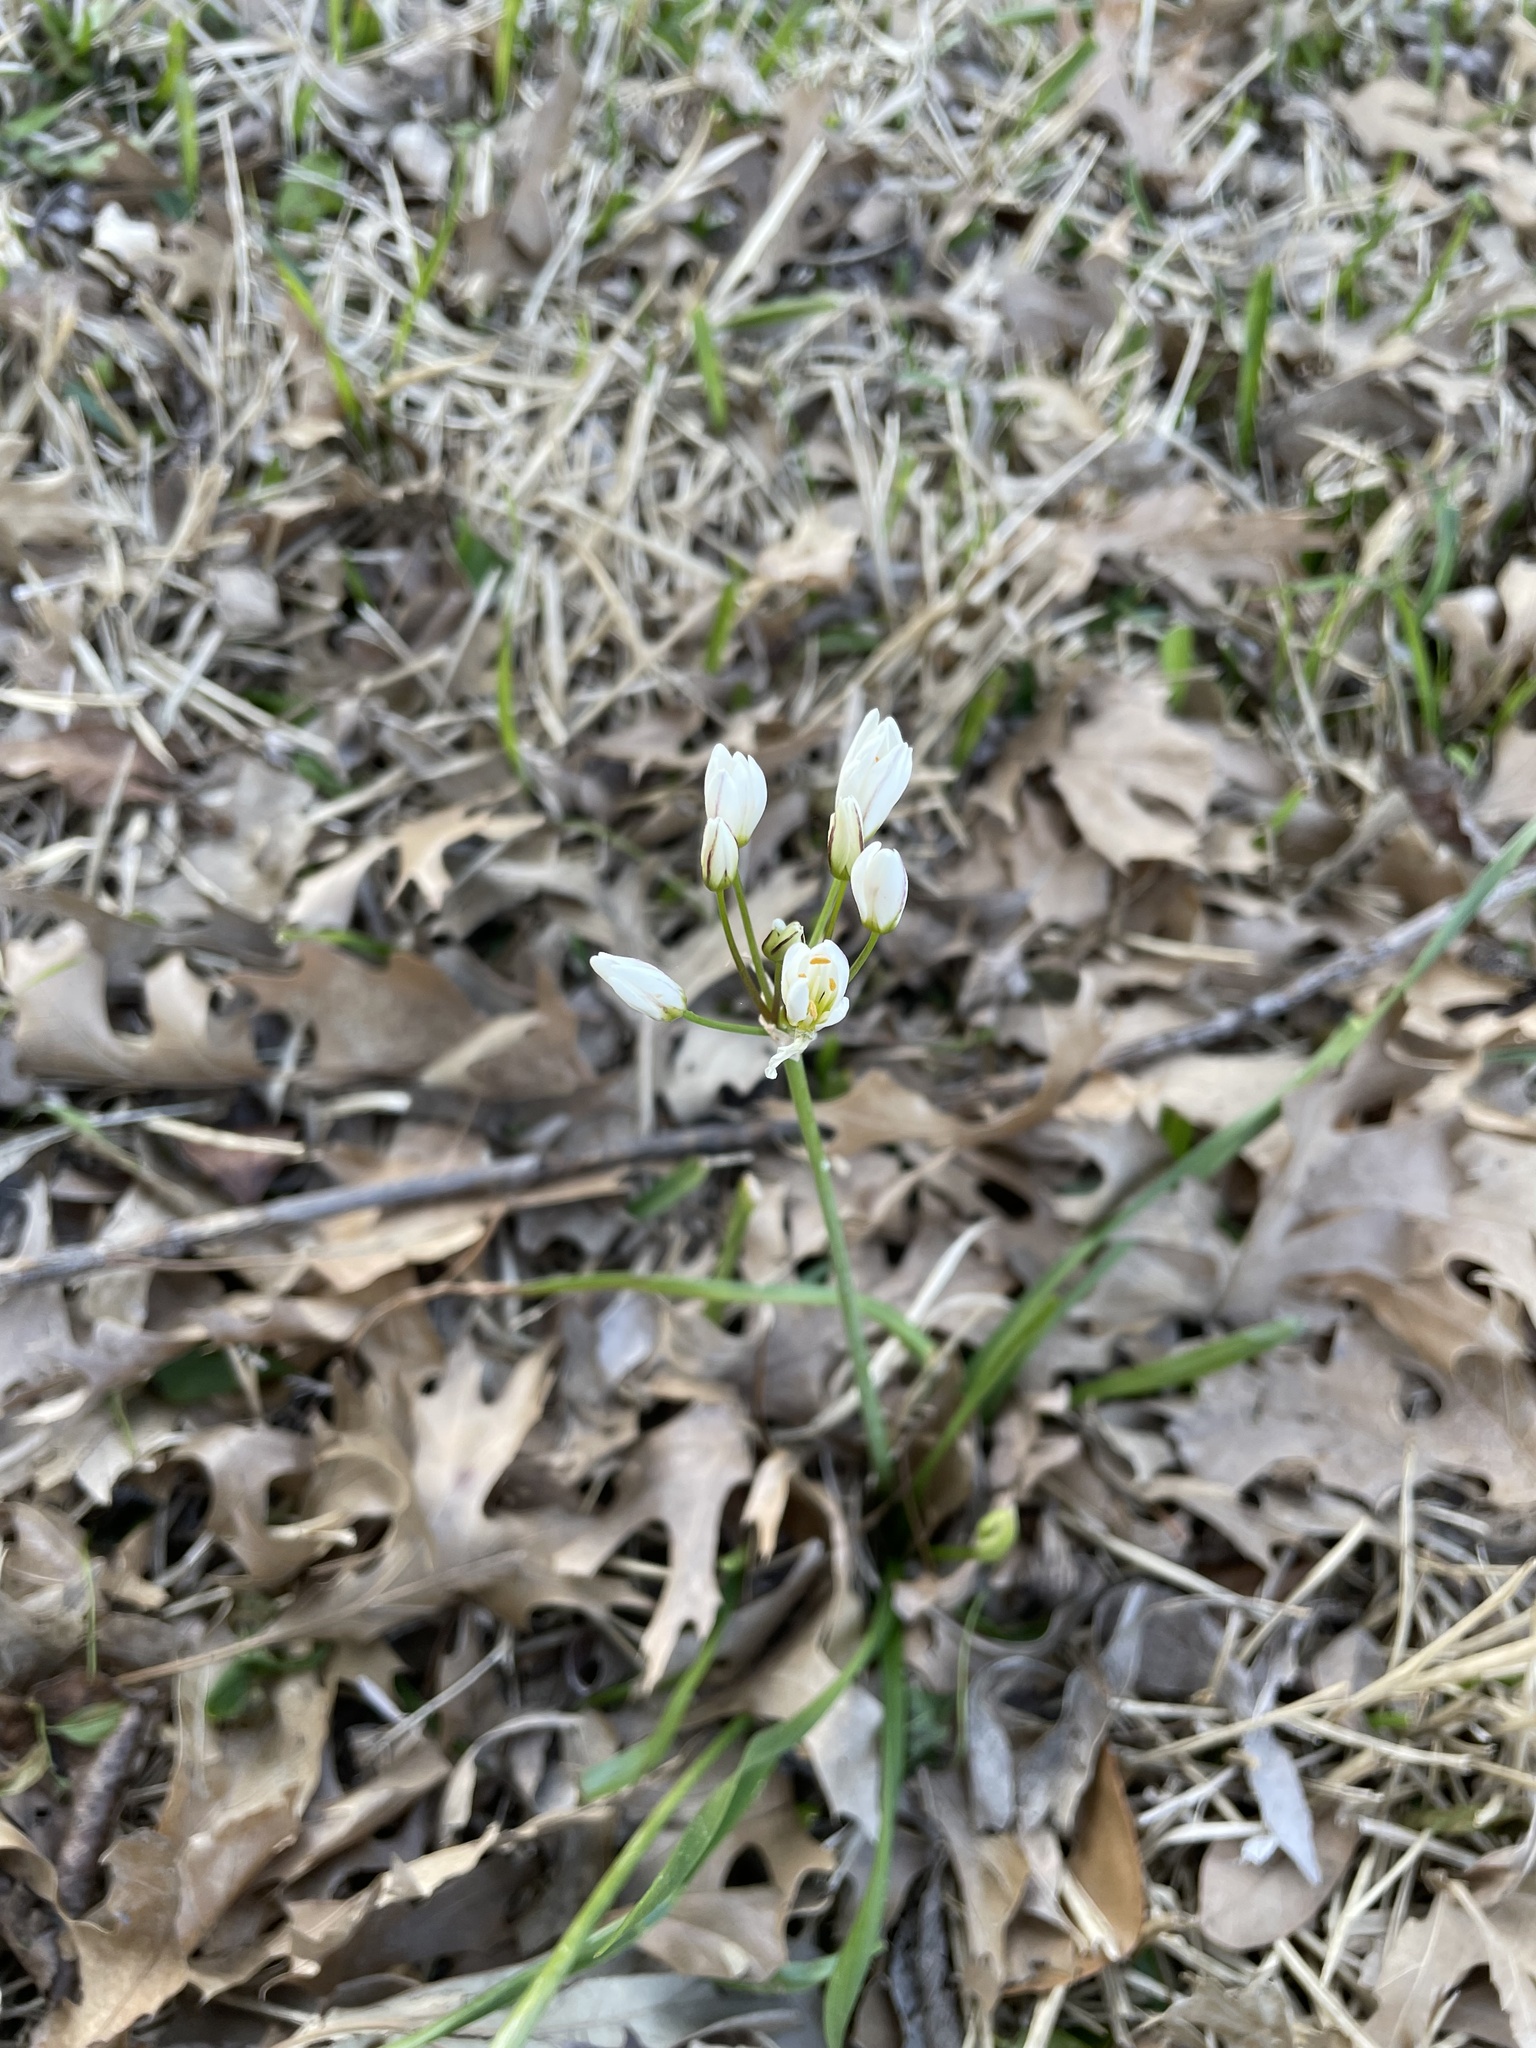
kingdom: Plantae
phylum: Tracheophyta
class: Liliopsida
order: Asparagales
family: Amaryllidaceae
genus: Nothoscordum
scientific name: Nothoscordum bivalve
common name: Crow-poison
